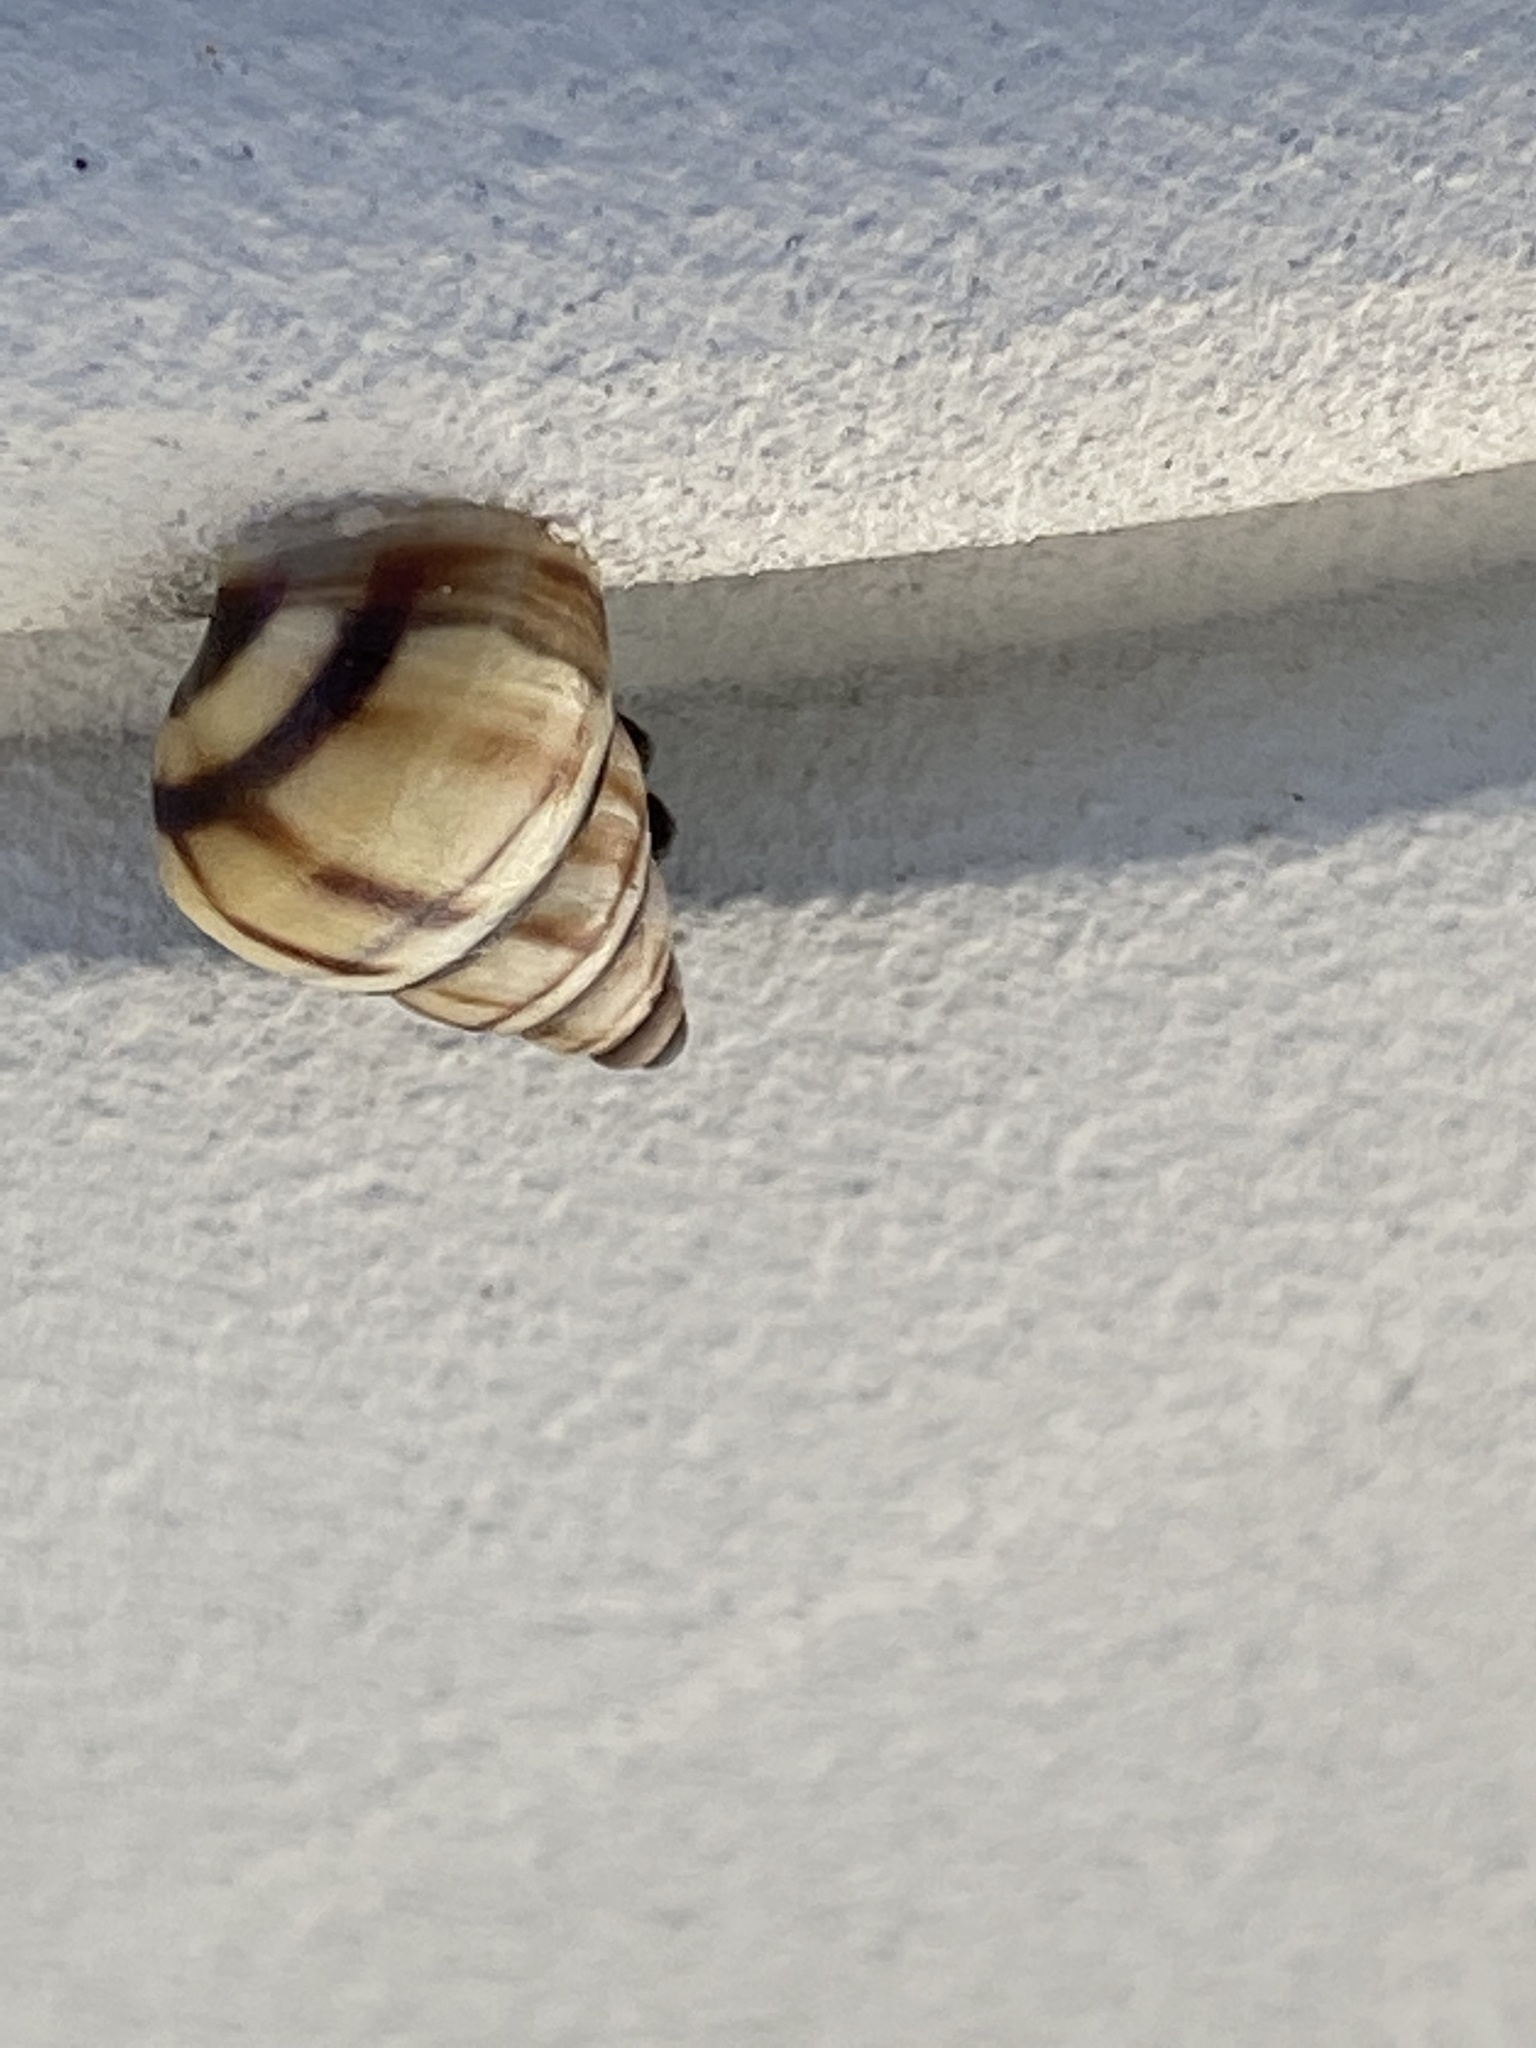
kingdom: Animalia
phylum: Mollusca
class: Gastropoda
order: Stylommatophora
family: Bulimulidae
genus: Drymaeus
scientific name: Drymaeus
